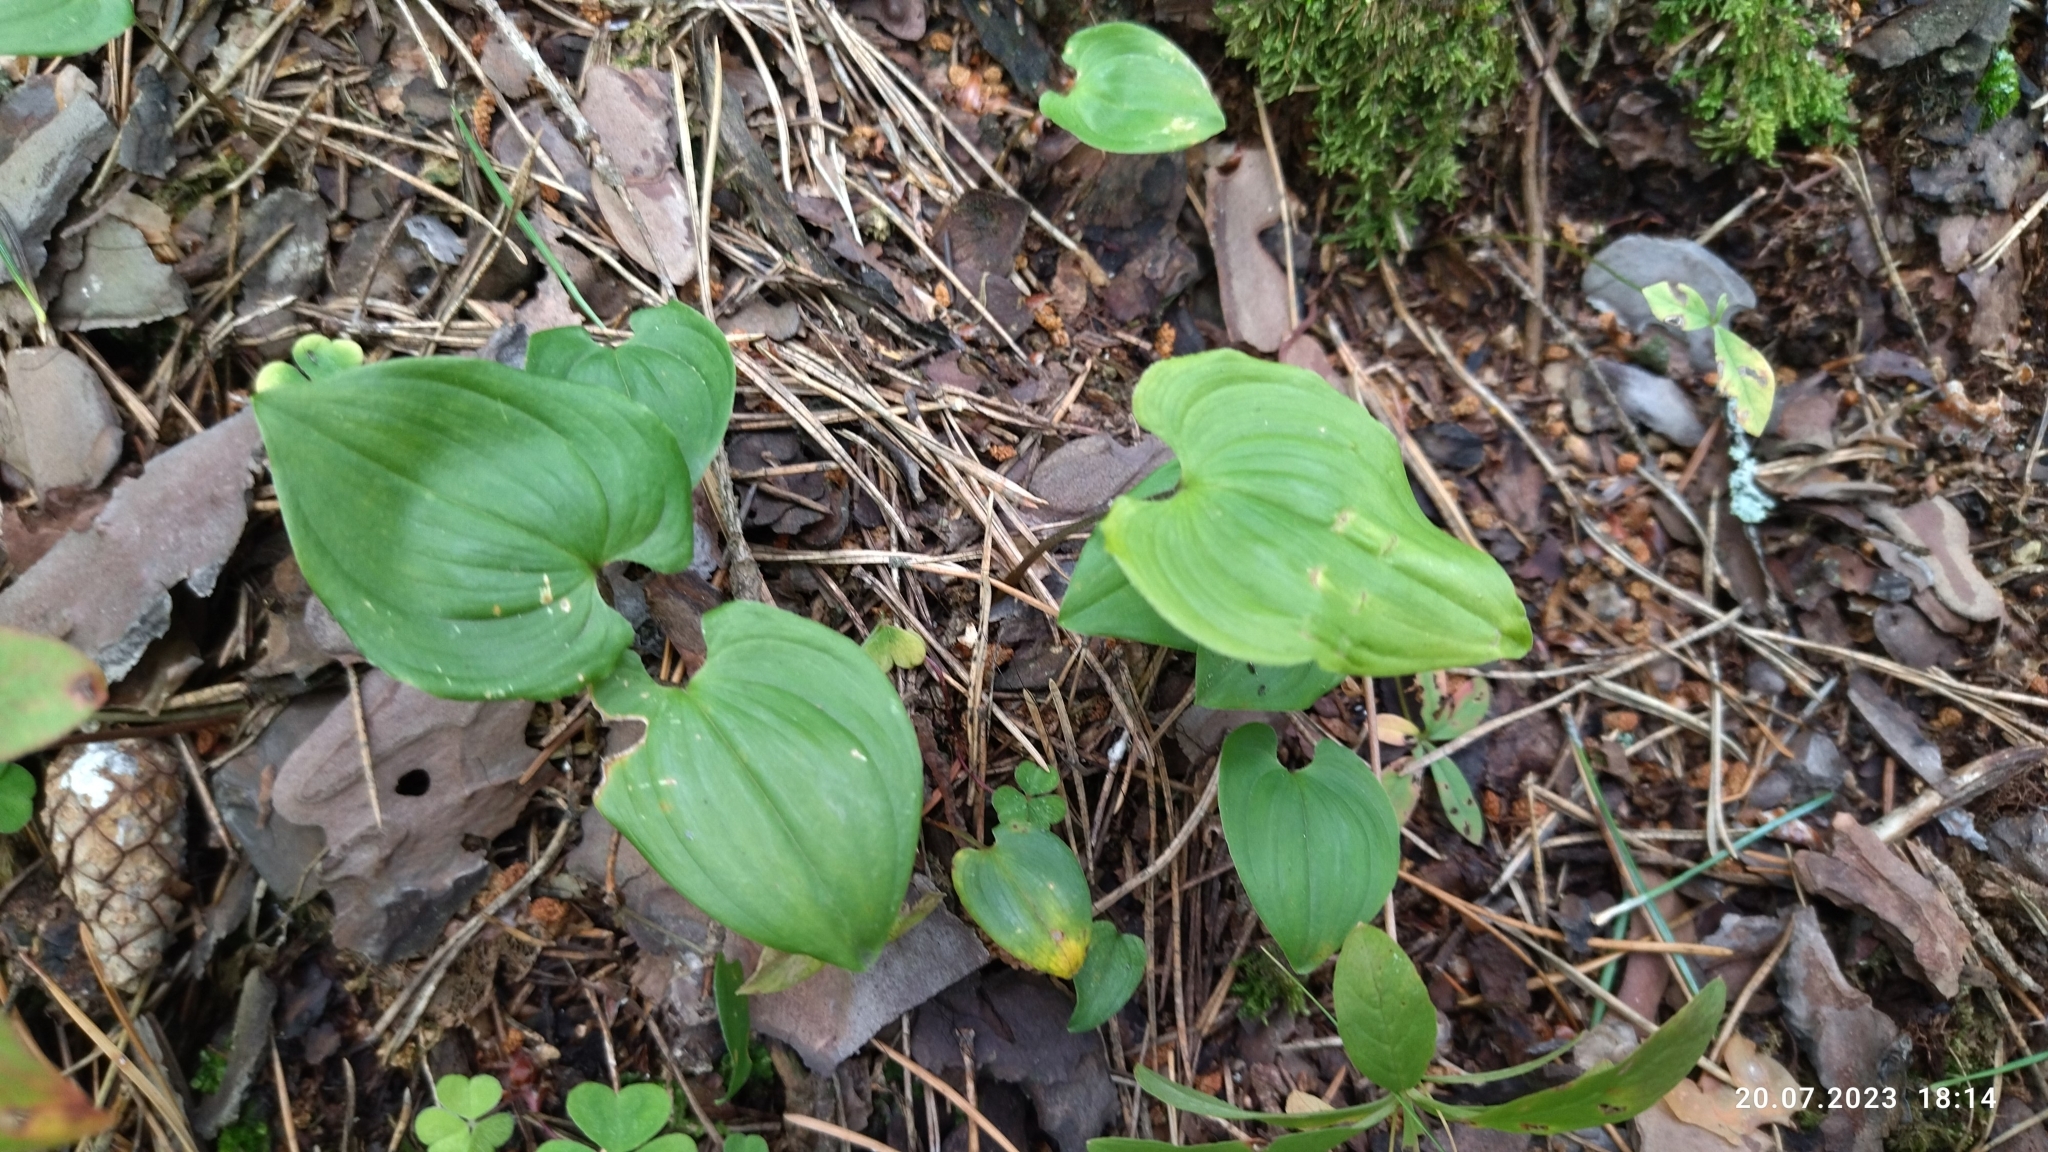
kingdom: Plantae
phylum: Tracheophyta
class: Liliopsida
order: Asparagales
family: Asparagaceae
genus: Maianthemum
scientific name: Maianthemum bifolium
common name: May lily
